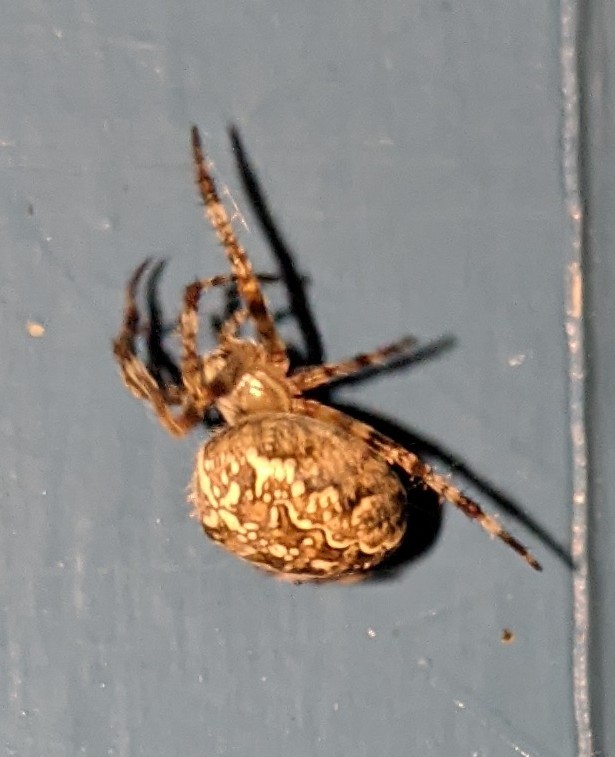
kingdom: Animalia
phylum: Arthropoda
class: Arachnida
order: Araneae
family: Araneidae
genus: Araneus
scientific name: Araneus diadematus
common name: Cross orbweaver
